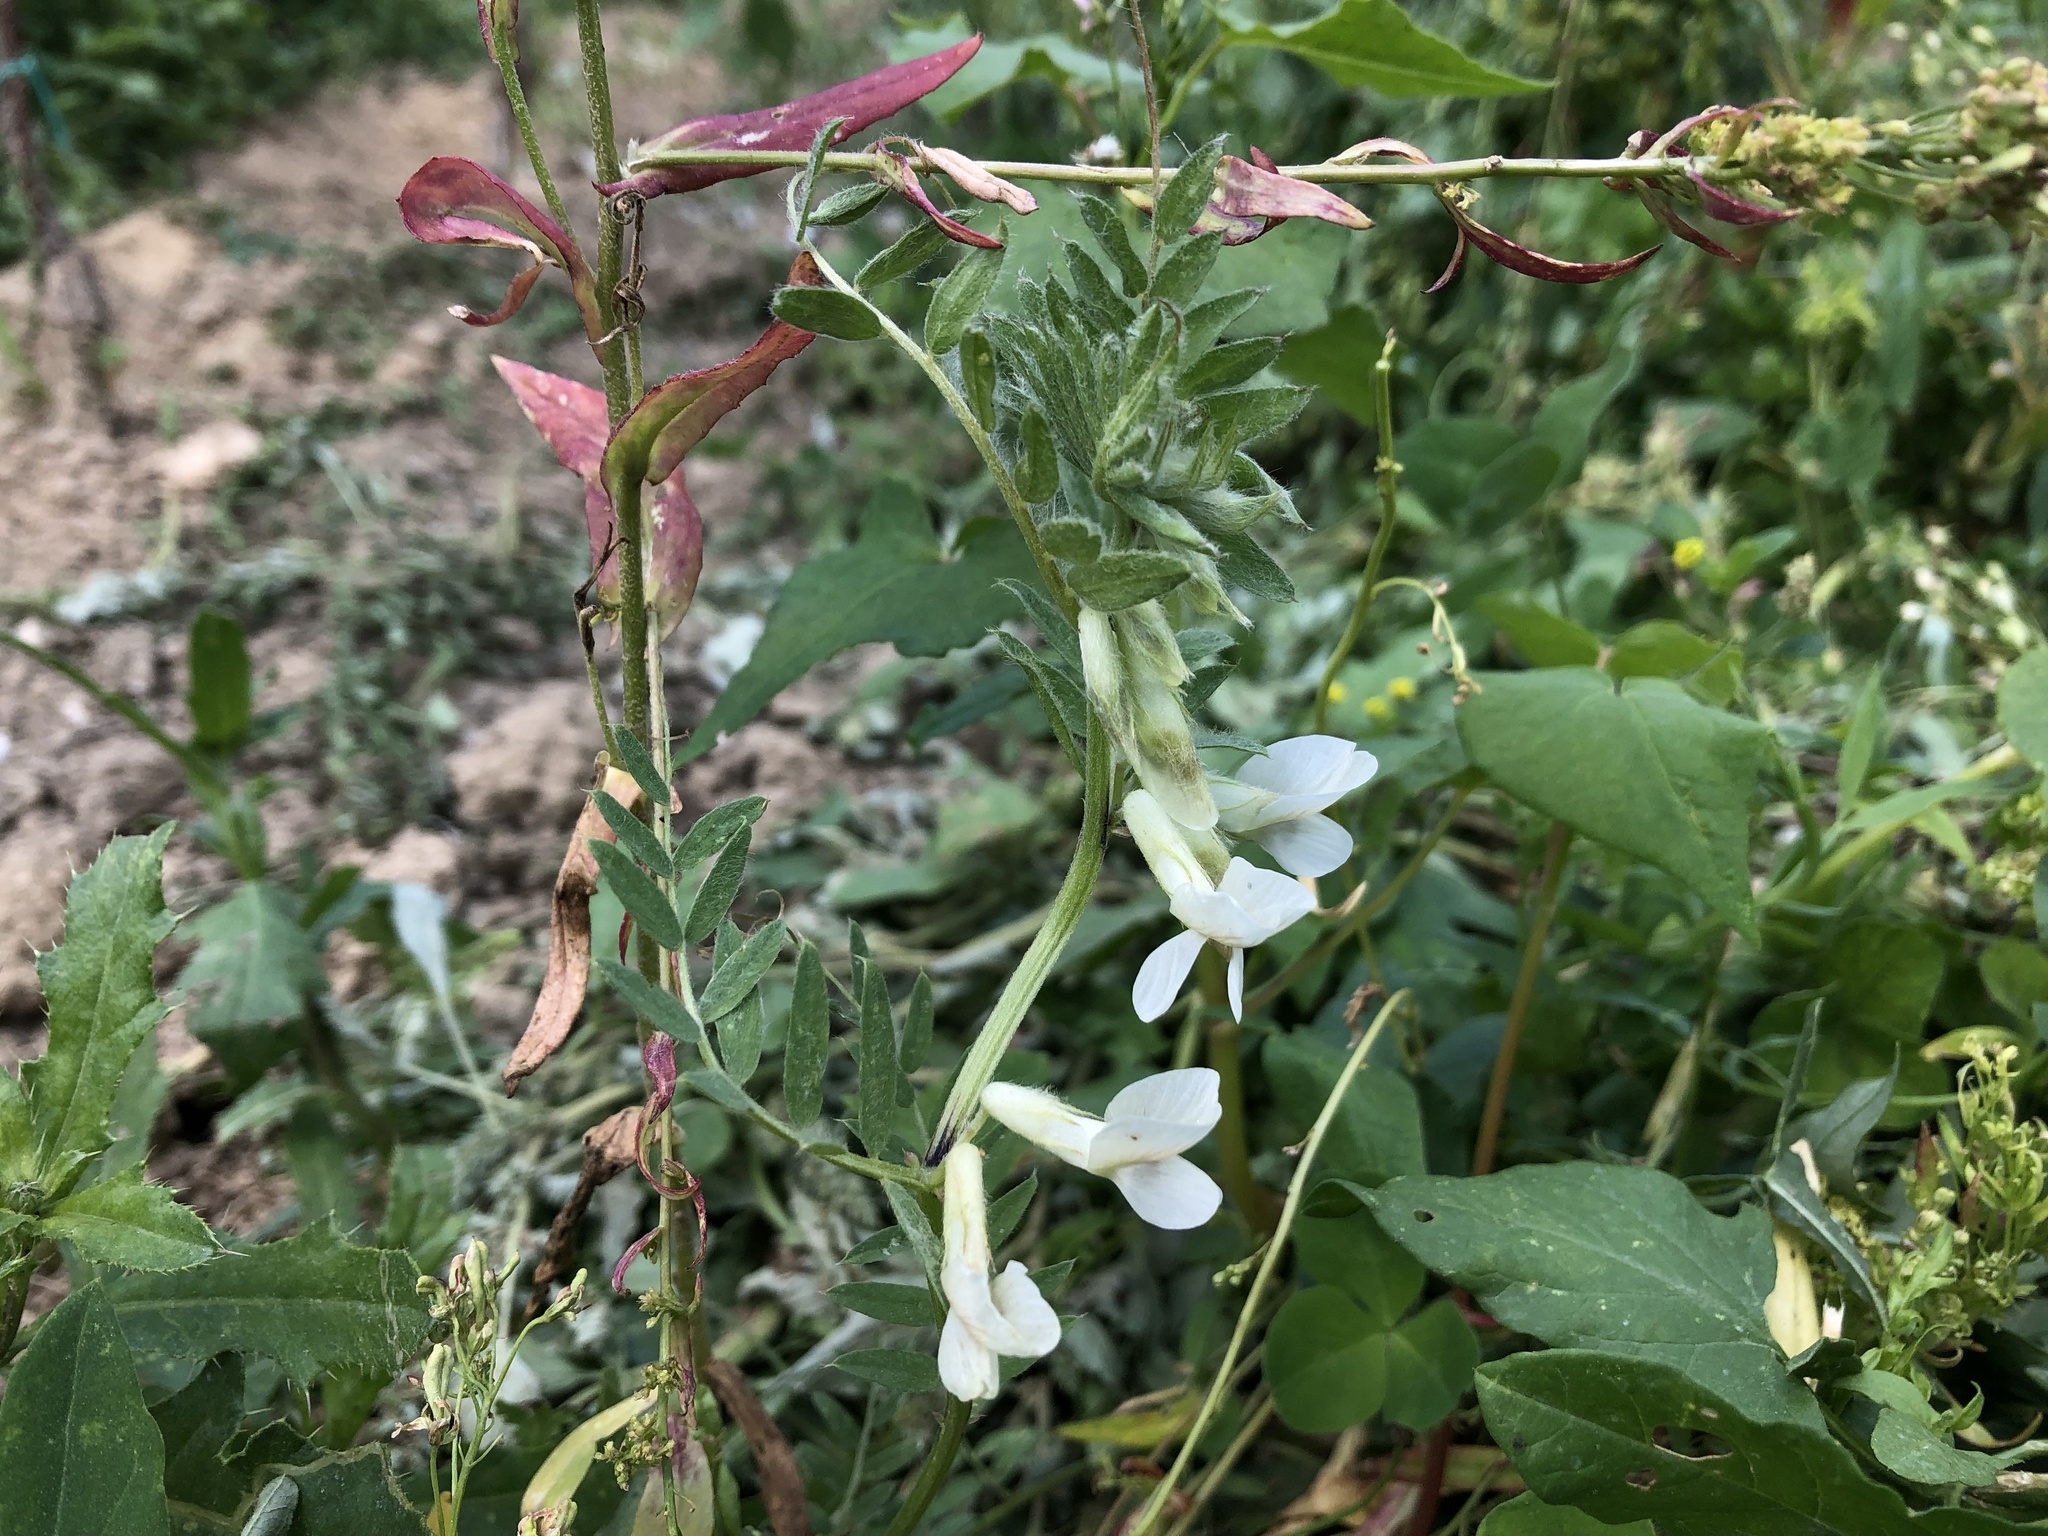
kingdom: Plantae
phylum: Tracheophyta
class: Magnoliopsida
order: Fabales
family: Fabaceae
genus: Vicia
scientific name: Vicia pannonica
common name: Hungarian vetch
